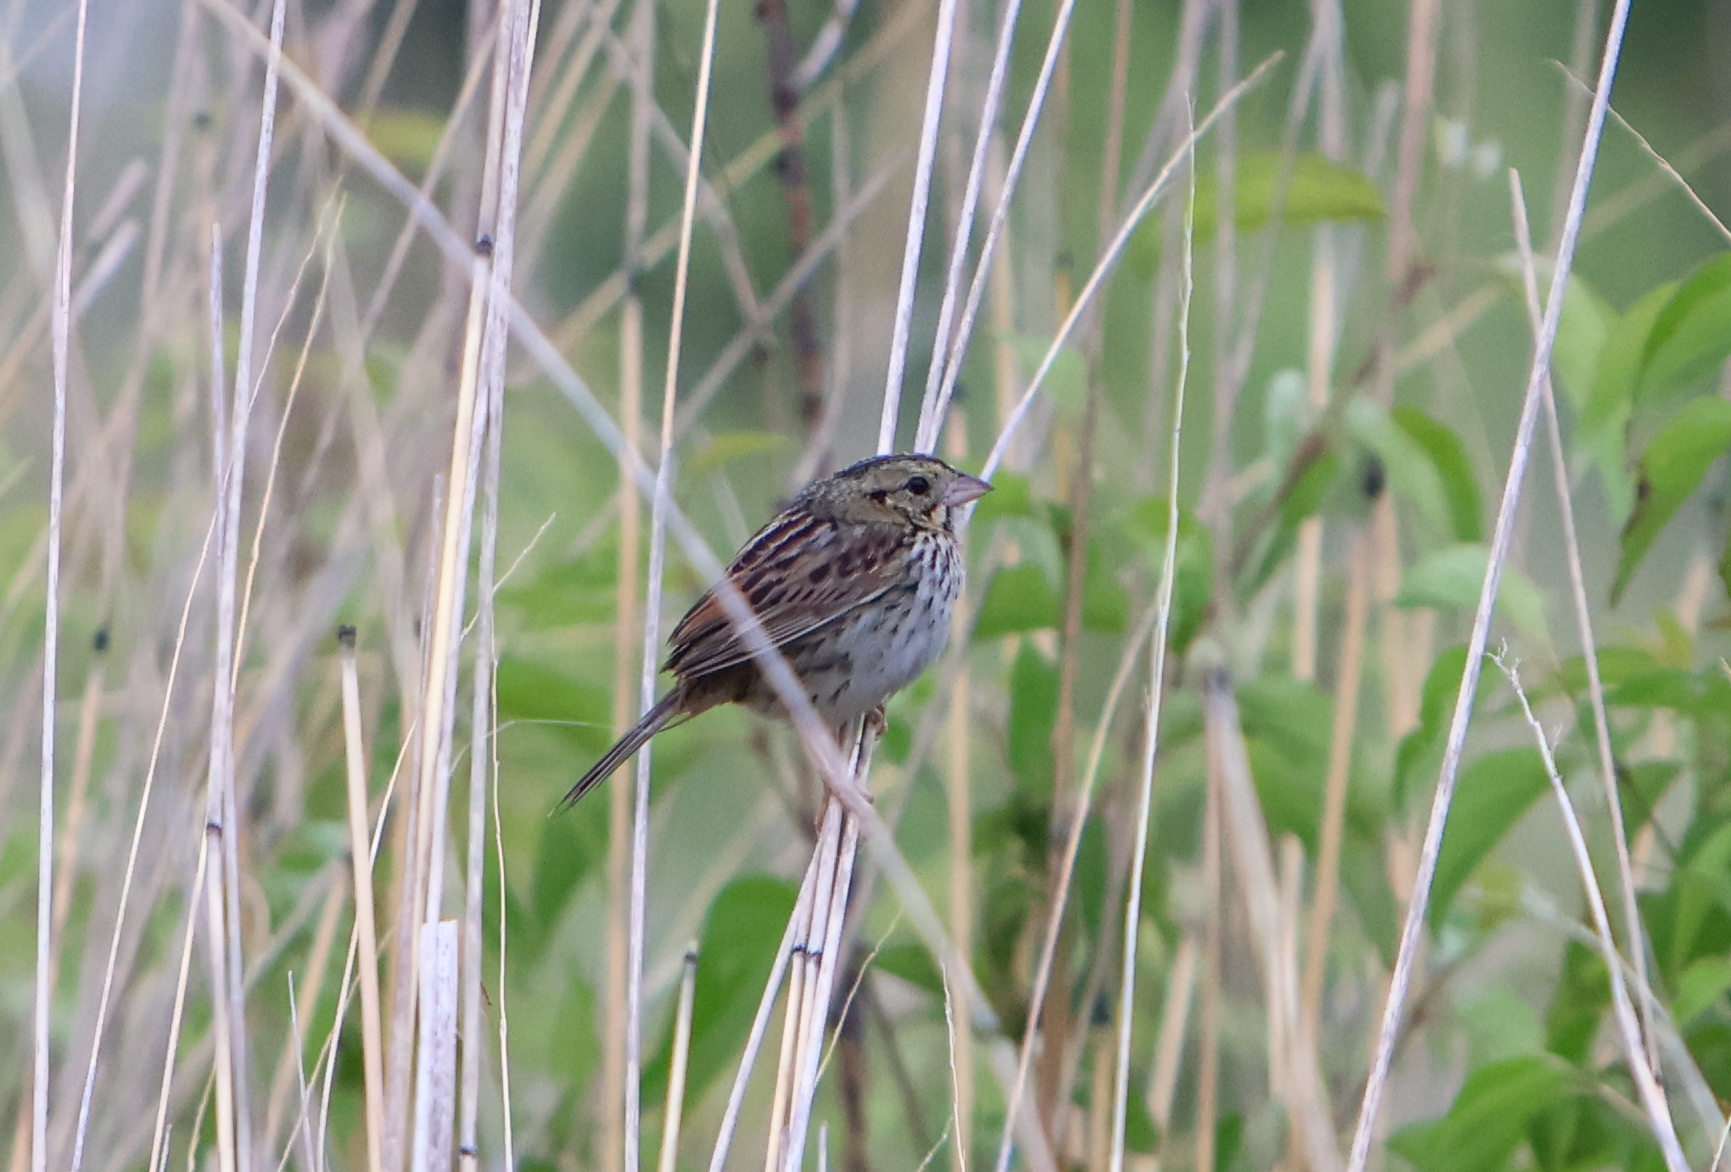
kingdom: Animalia
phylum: Chordata
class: Aves
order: Passeriformes
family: Passerellidae
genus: Centronyx
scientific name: Centronyx henslowii
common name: Henslow's sparrow
